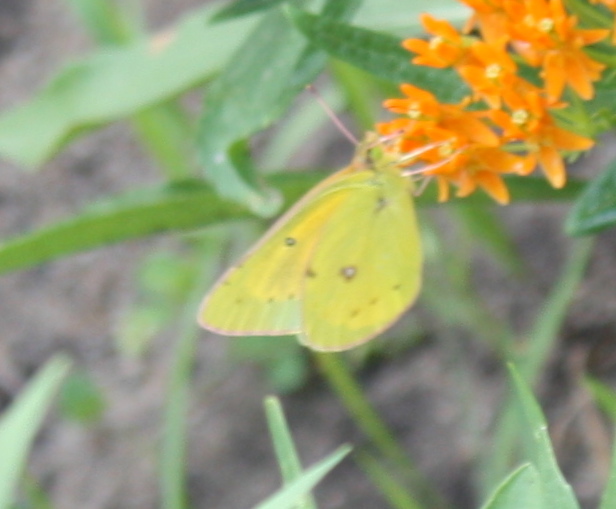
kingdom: Animalia
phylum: Arthropoda
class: Insecta
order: Lepidoptera
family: Pieridae
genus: Colias
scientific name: Colias eurytheme
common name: Alfalfa butterfly
